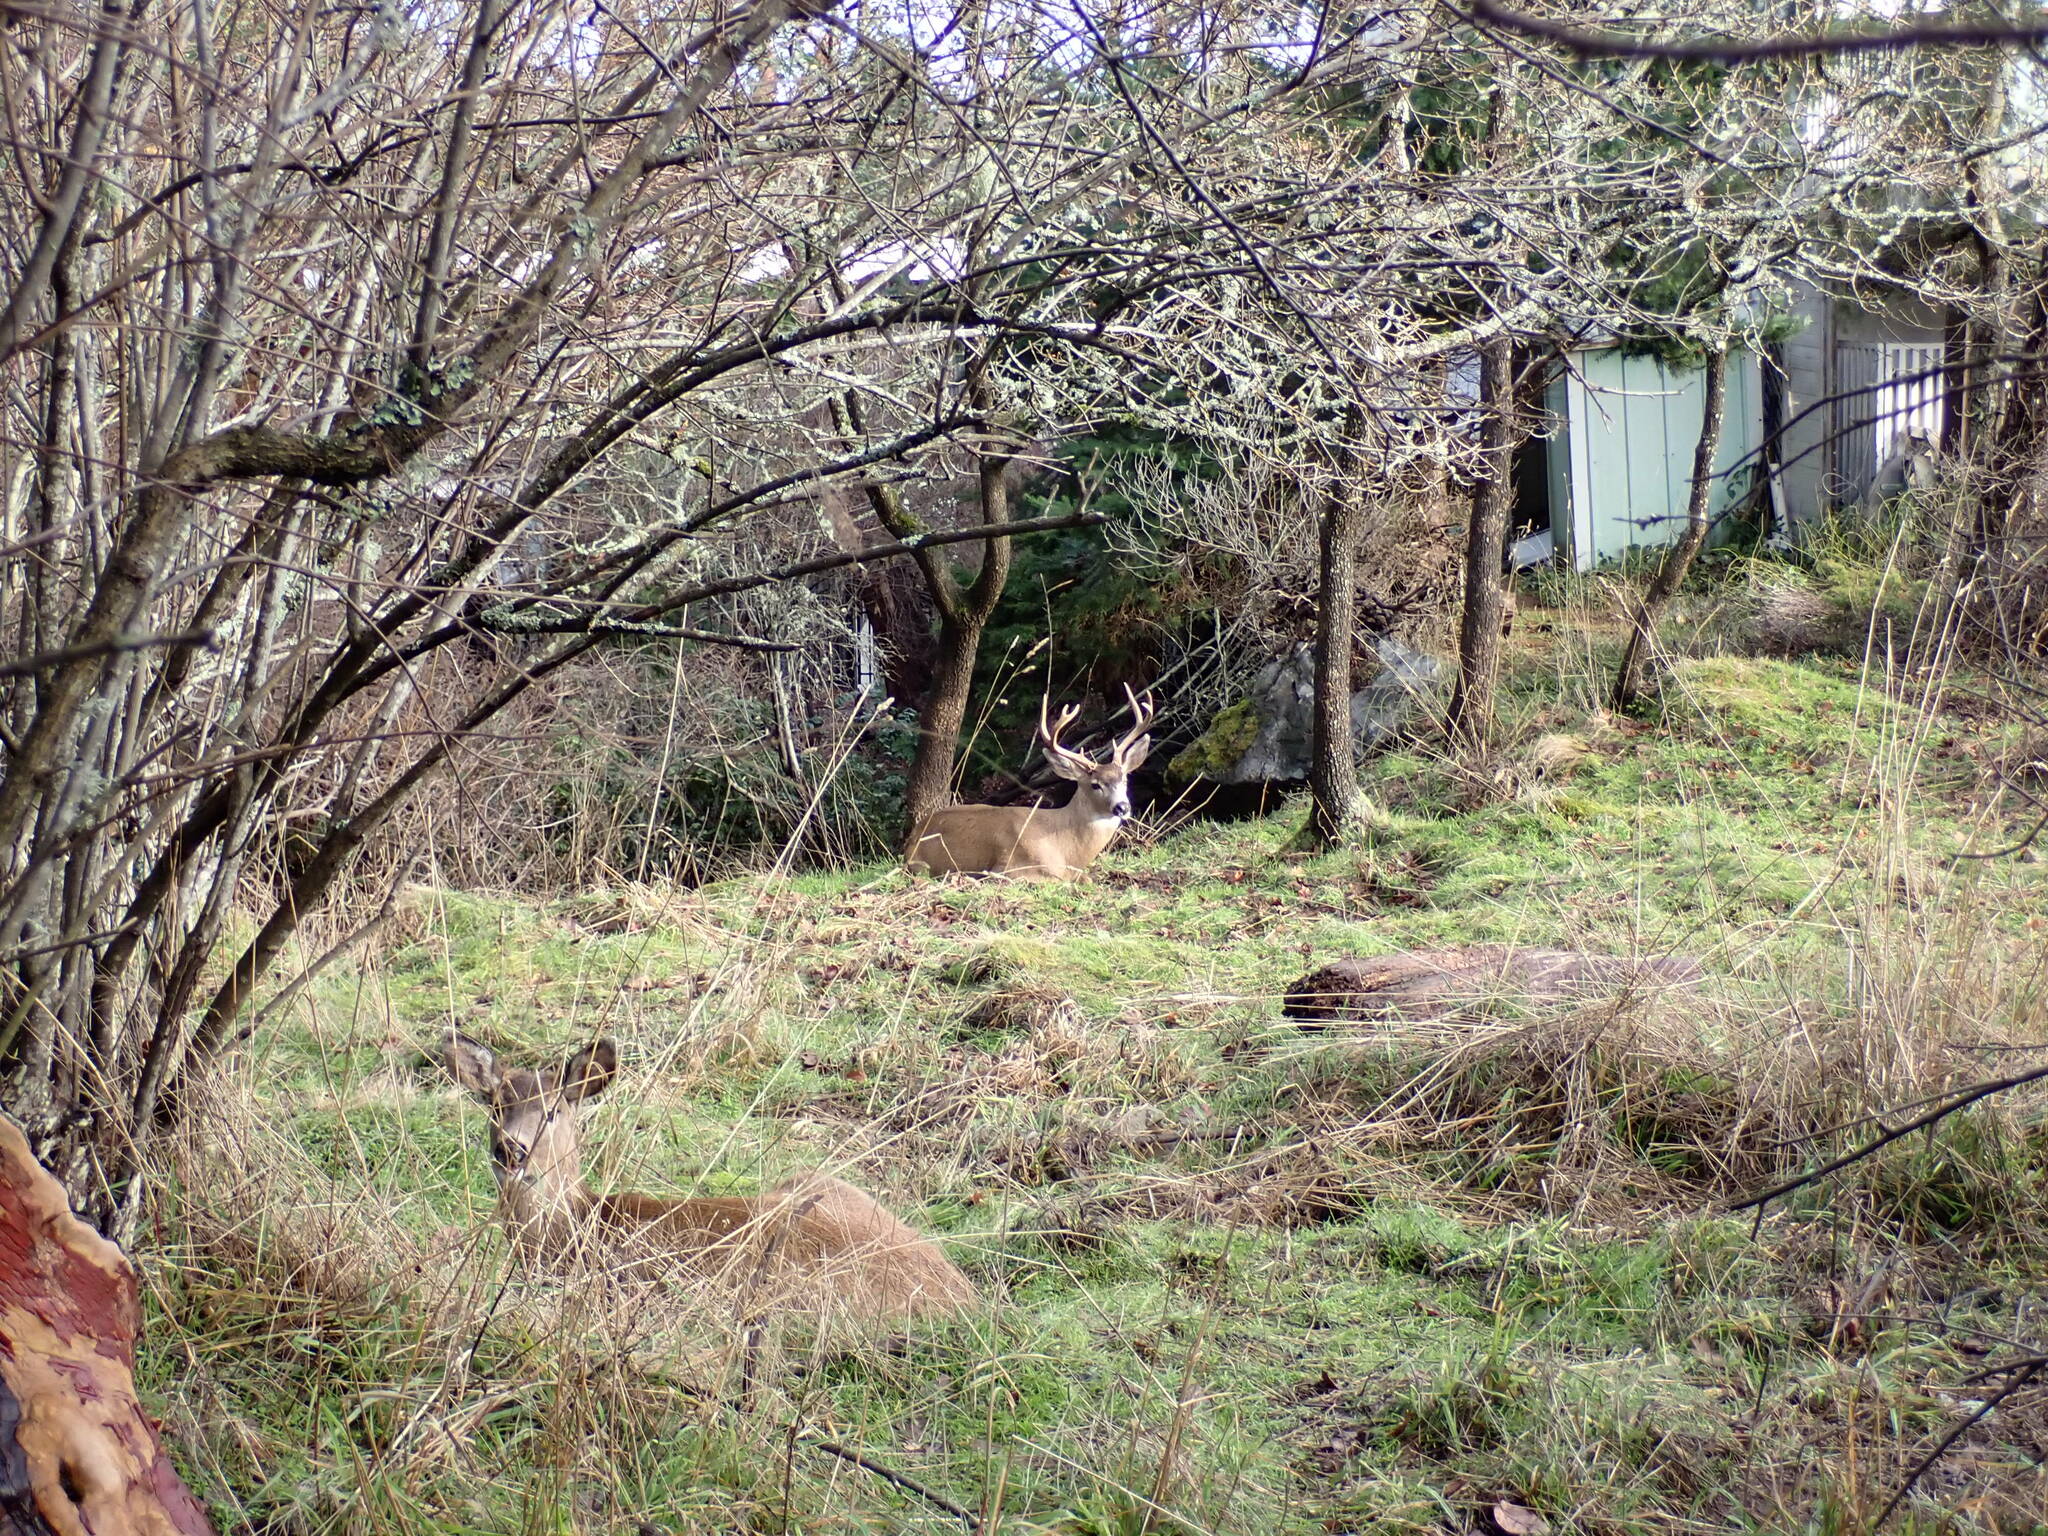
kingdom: Animalia
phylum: Chordata
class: Mammalia
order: Artiodactyla
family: Cervidae
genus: Odocoileus
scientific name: Odocoileus hemionus
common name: Mule deer
